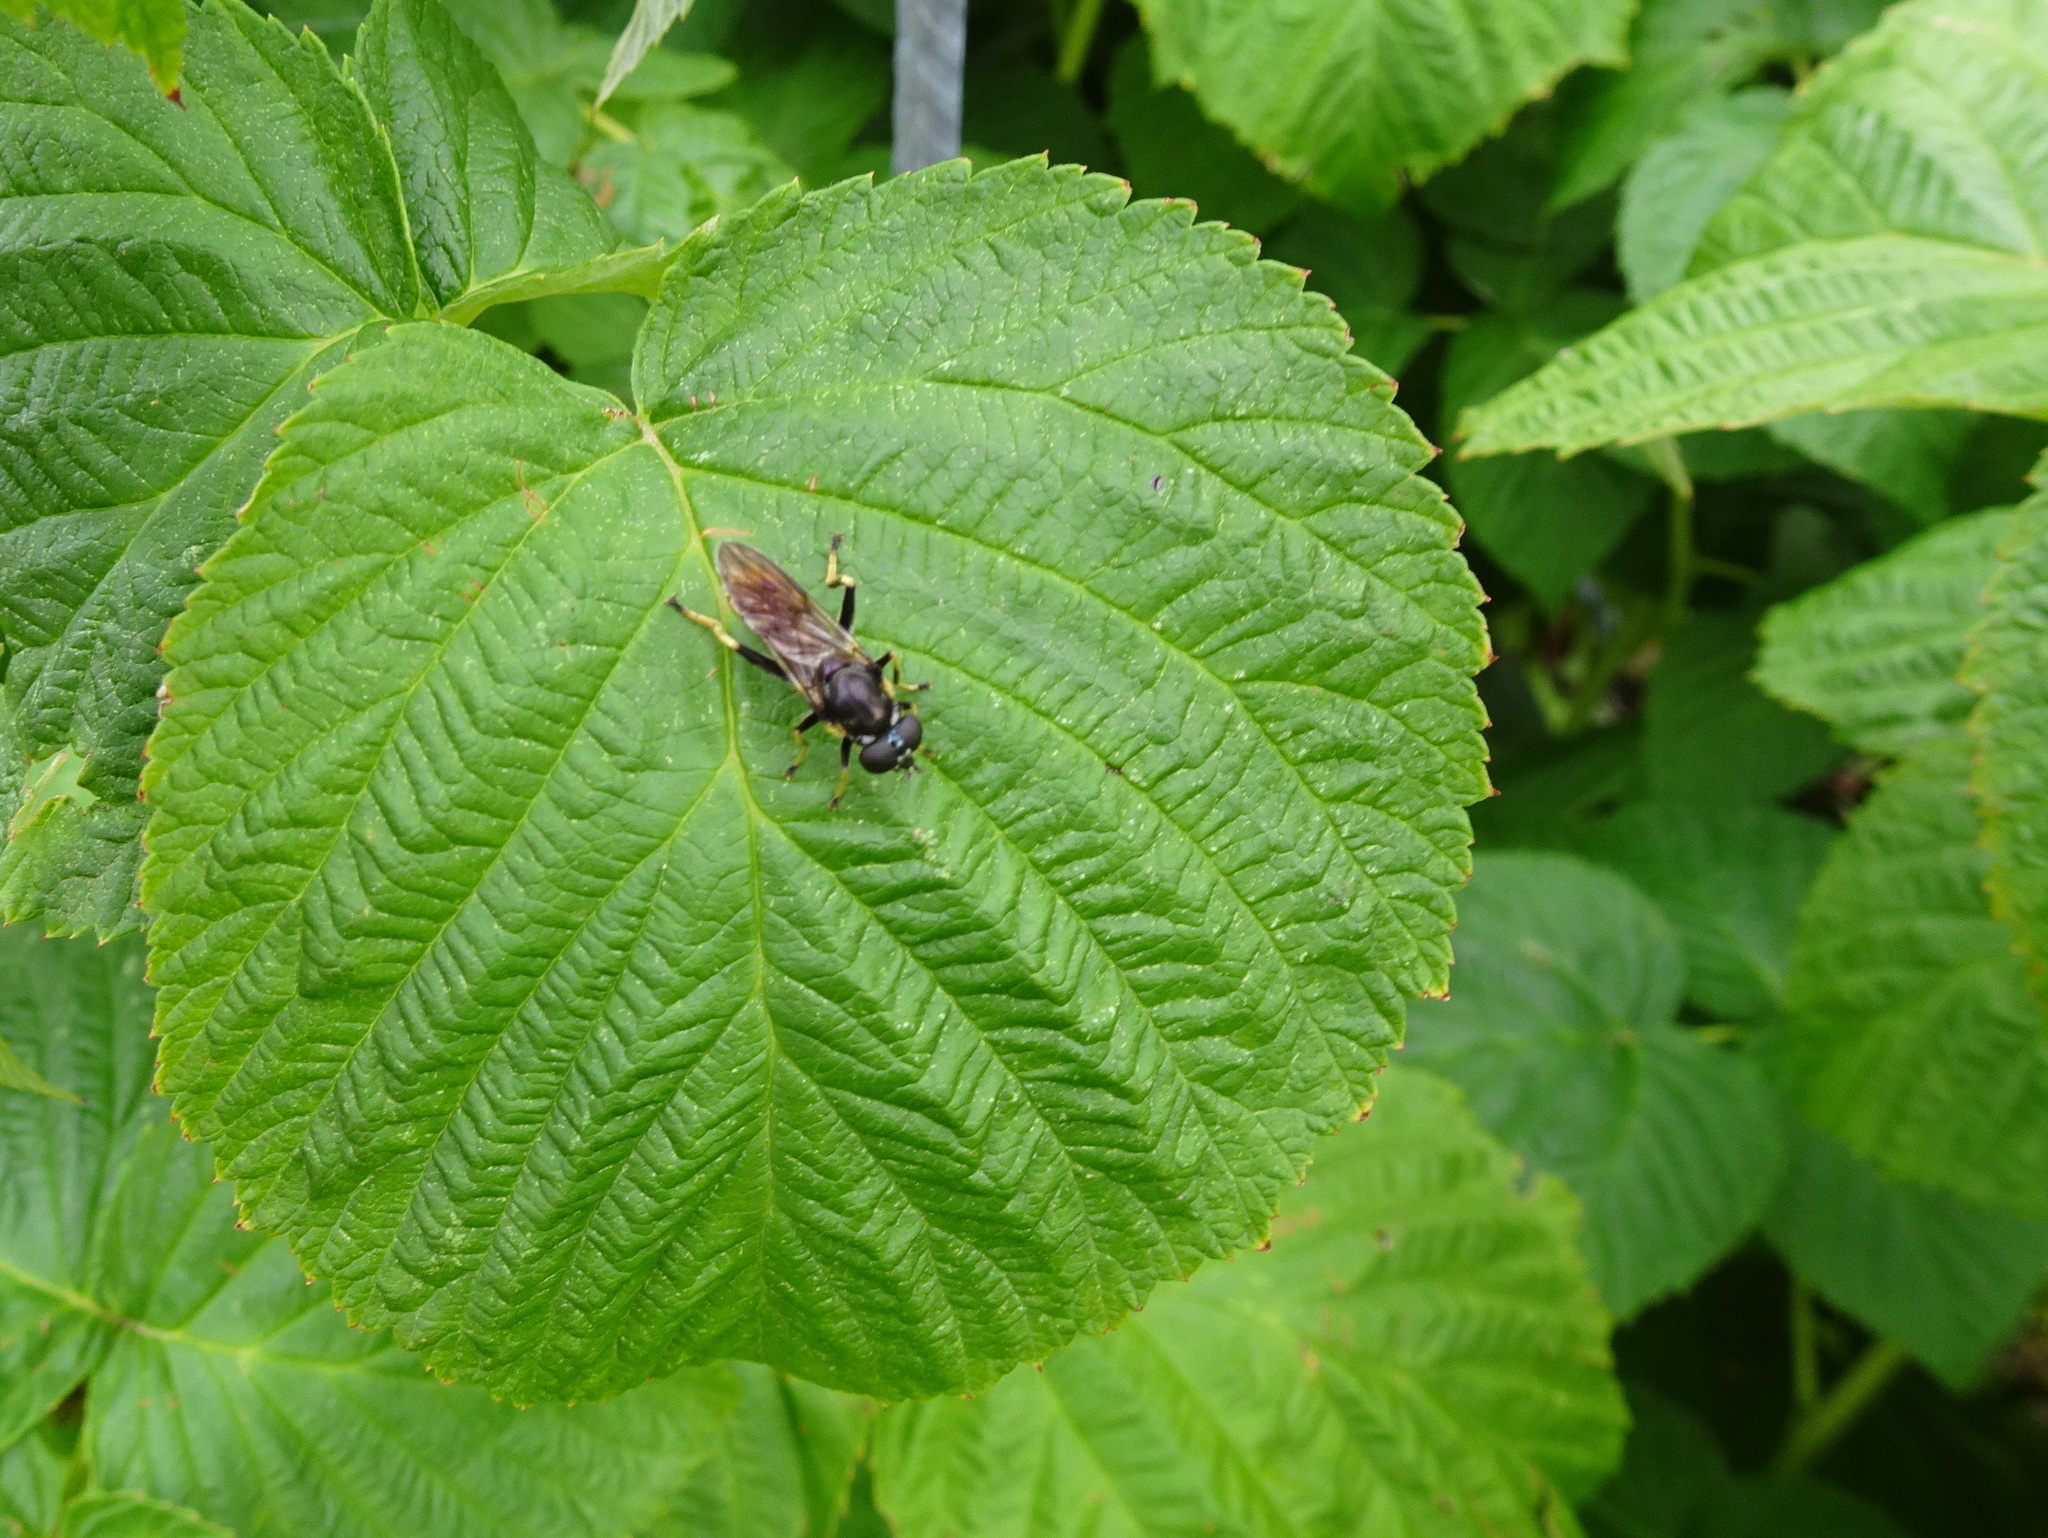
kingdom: Animalia
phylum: Arthropoda
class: Insecta
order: Diptera
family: Syrphidae
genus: Xylota
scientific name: Xylota sylvarum
